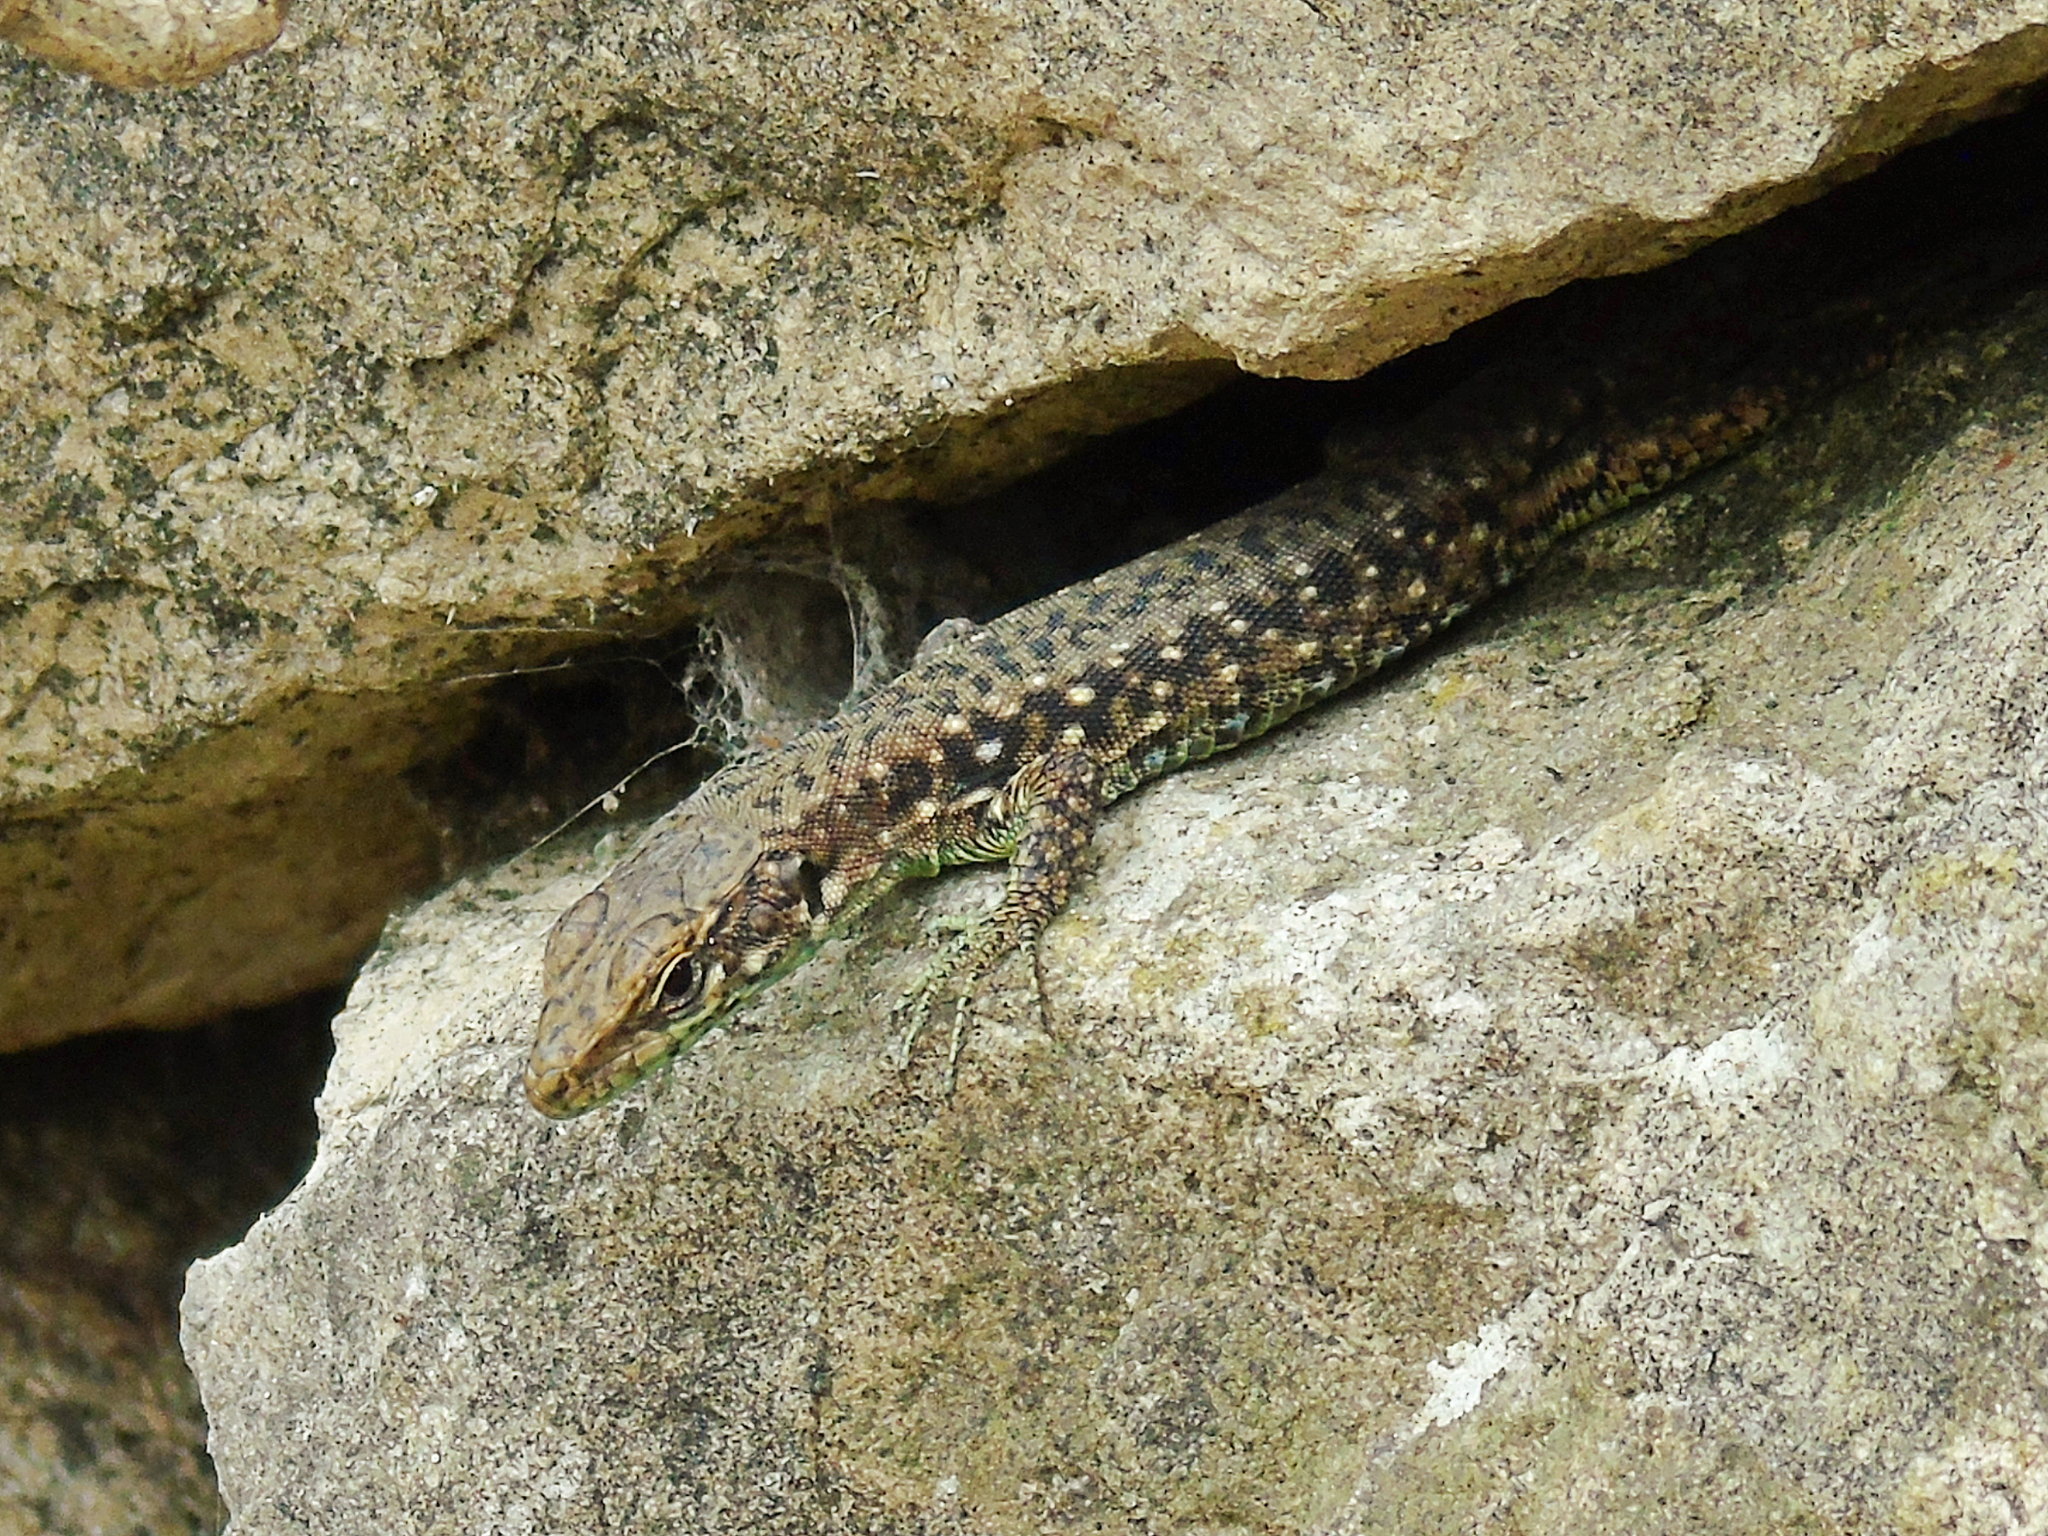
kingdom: Animalia
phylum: Chordata
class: Squamata
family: Lacertidae
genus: Darevskia
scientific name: Darevskia rudis
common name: Spiny-tailed lizard
